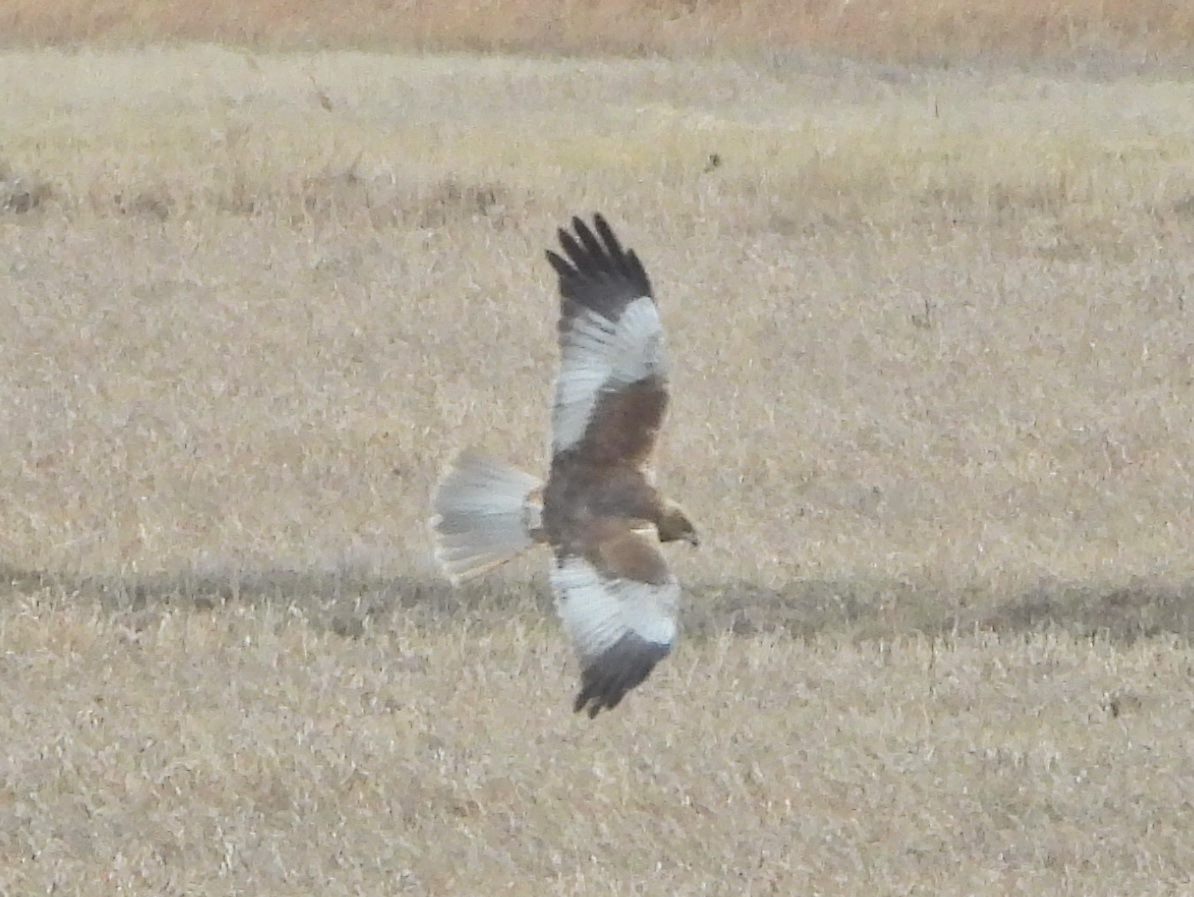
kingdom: Animalia
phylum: Chordata
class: Aves
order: Accipitriformes
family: Accipitridae
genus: Circus
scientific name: Circus aeruginosus
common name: Western marsh harrier
